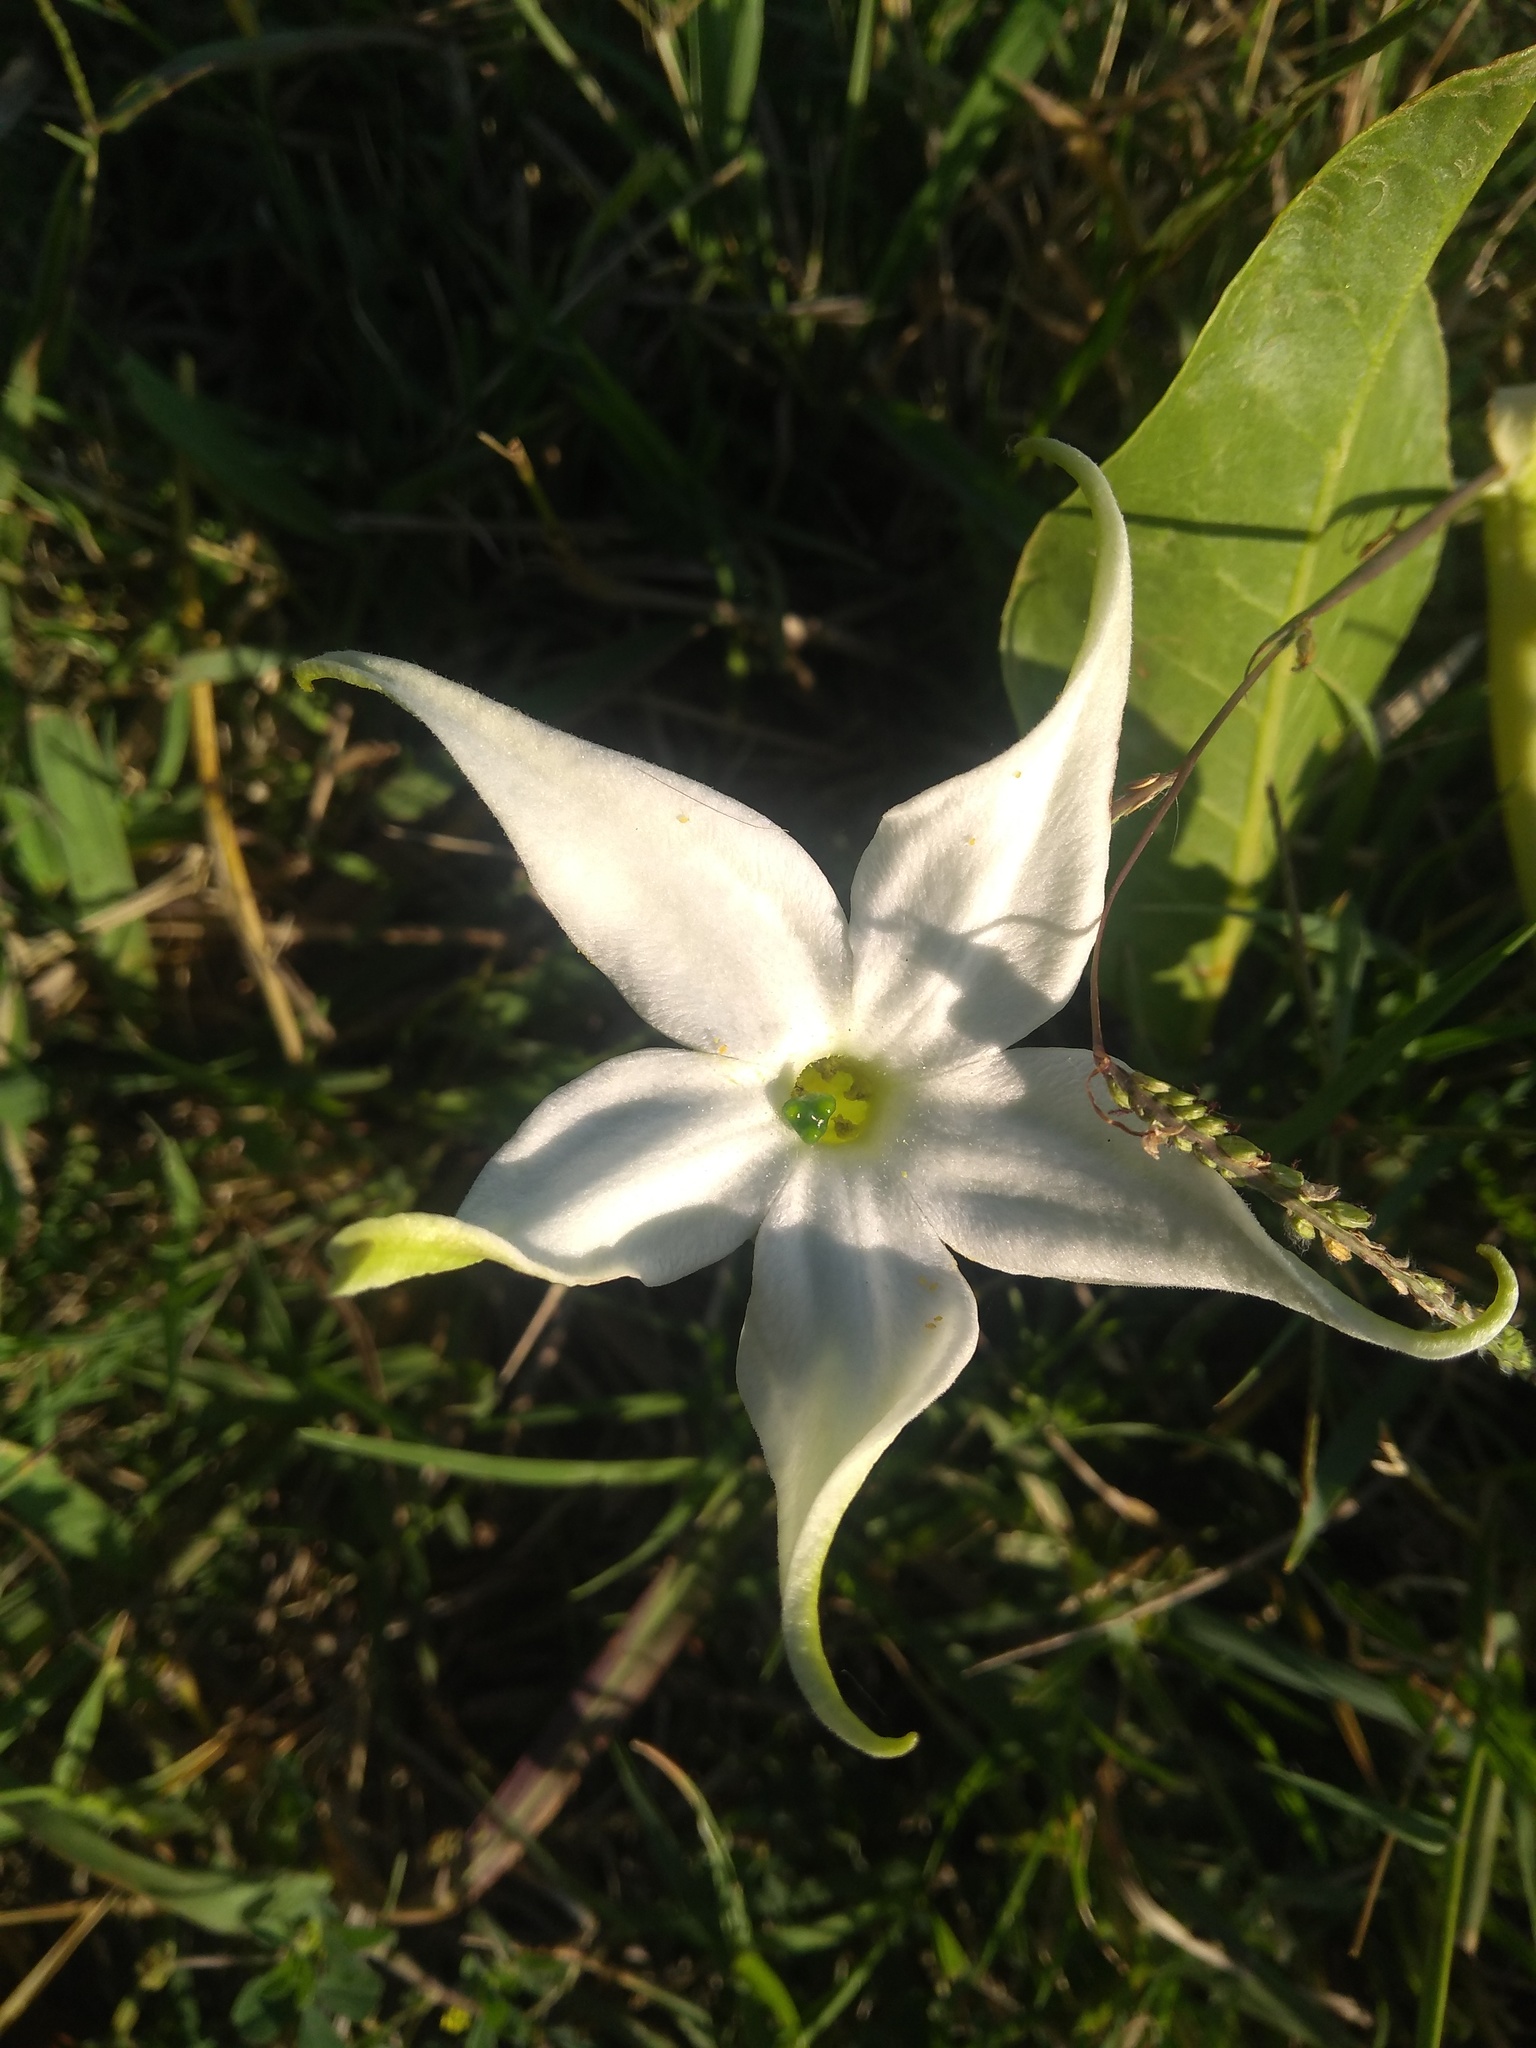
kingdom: Plantae
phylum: Tracheophyta
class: Magnoliopsida
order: Solanales
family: Solanaceae
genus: Jaborosa
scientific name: Jaborosa integrifolia
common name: Springblossom
